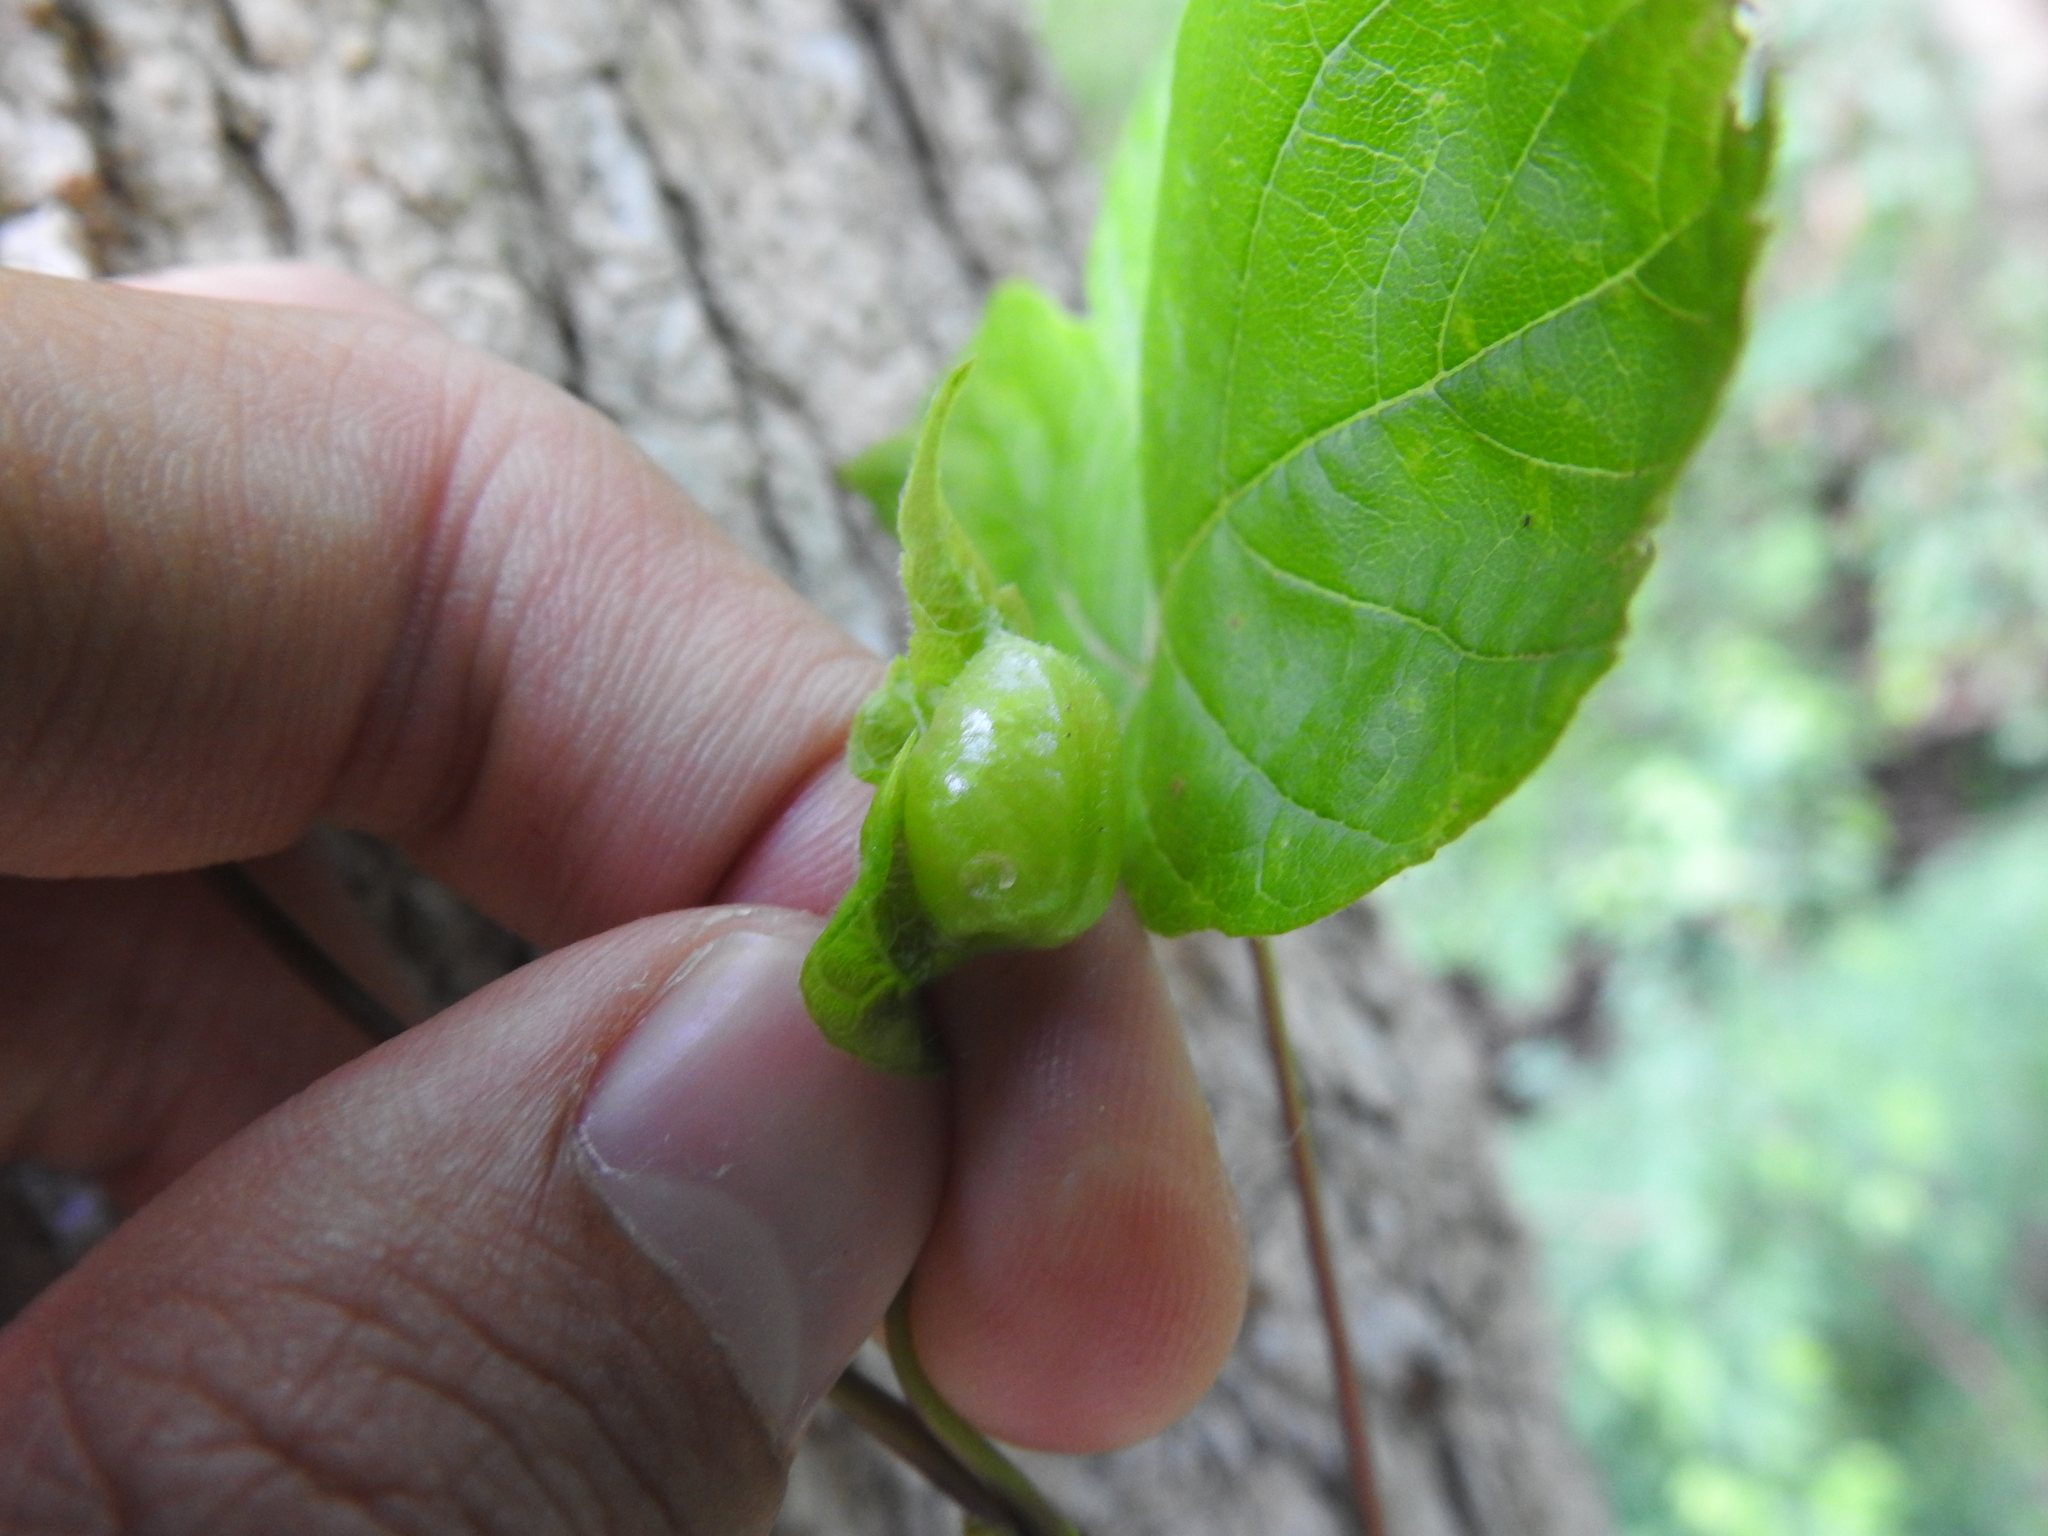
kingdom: Animalia
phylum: Arthropoda
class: Insecta
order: Diptera
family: Cecidomyiidae
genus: Contarinia
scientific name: Contarinia negundinis
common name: Boxelder budgall midge
